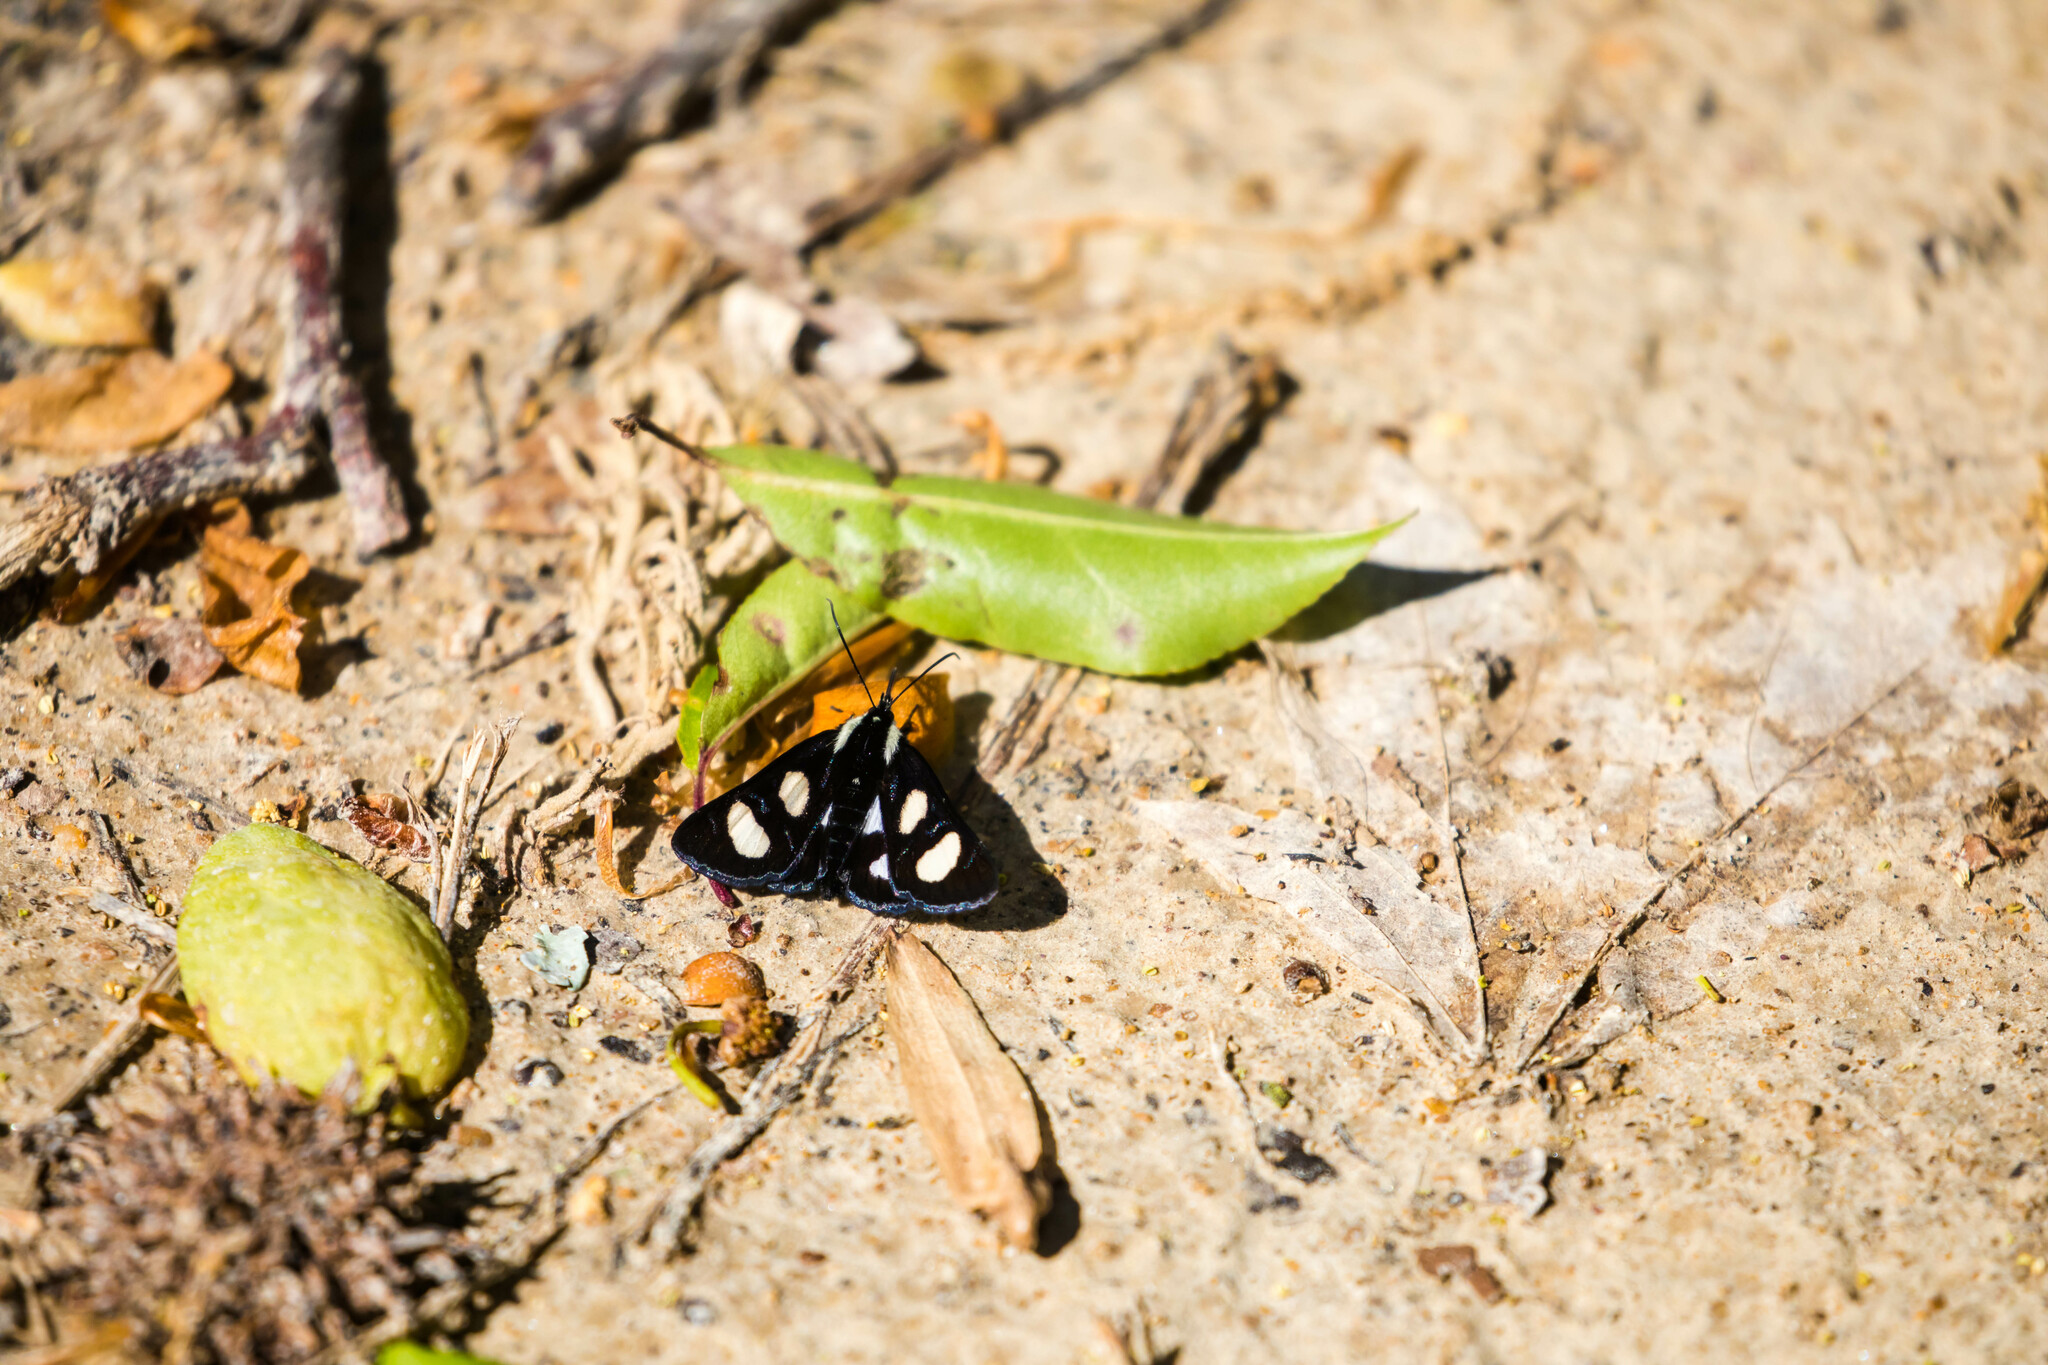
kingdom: Animalia
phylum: Arthropoda
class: Insecta
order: Lepidoptera
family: Noctuidae
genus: Alypia
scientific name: Alypia octomaculata
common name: Eight-spotted forester
